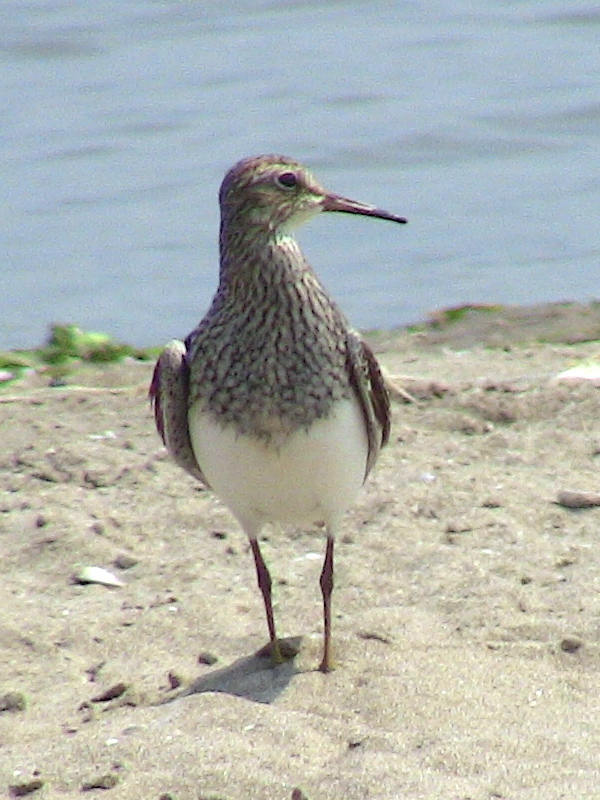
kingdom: Animalia
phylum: Chordata
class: Aves
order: Charadriiformes
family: Scolopacidae
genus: Calidris
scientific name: Calidris melanotos
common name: Pectoral sandpiper
